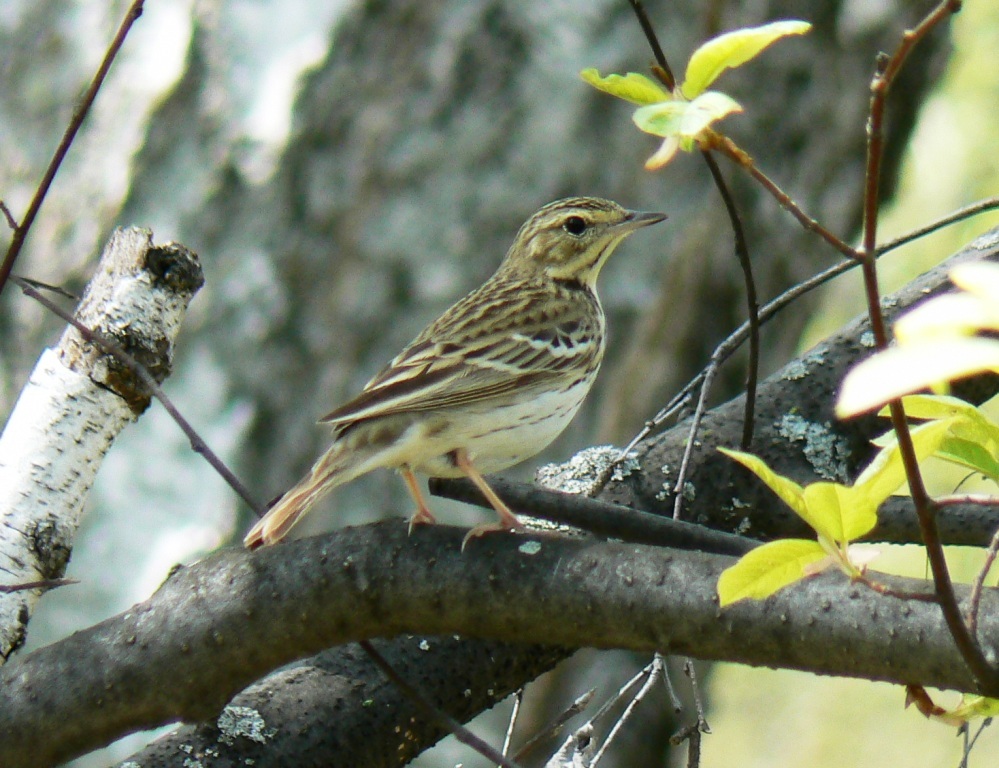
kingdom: Animalia
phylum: Chordata
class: Aves
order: Passeriformes
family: Motacillidae
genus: Anthus
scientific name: Anthus trivialis
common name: Tree pipit
